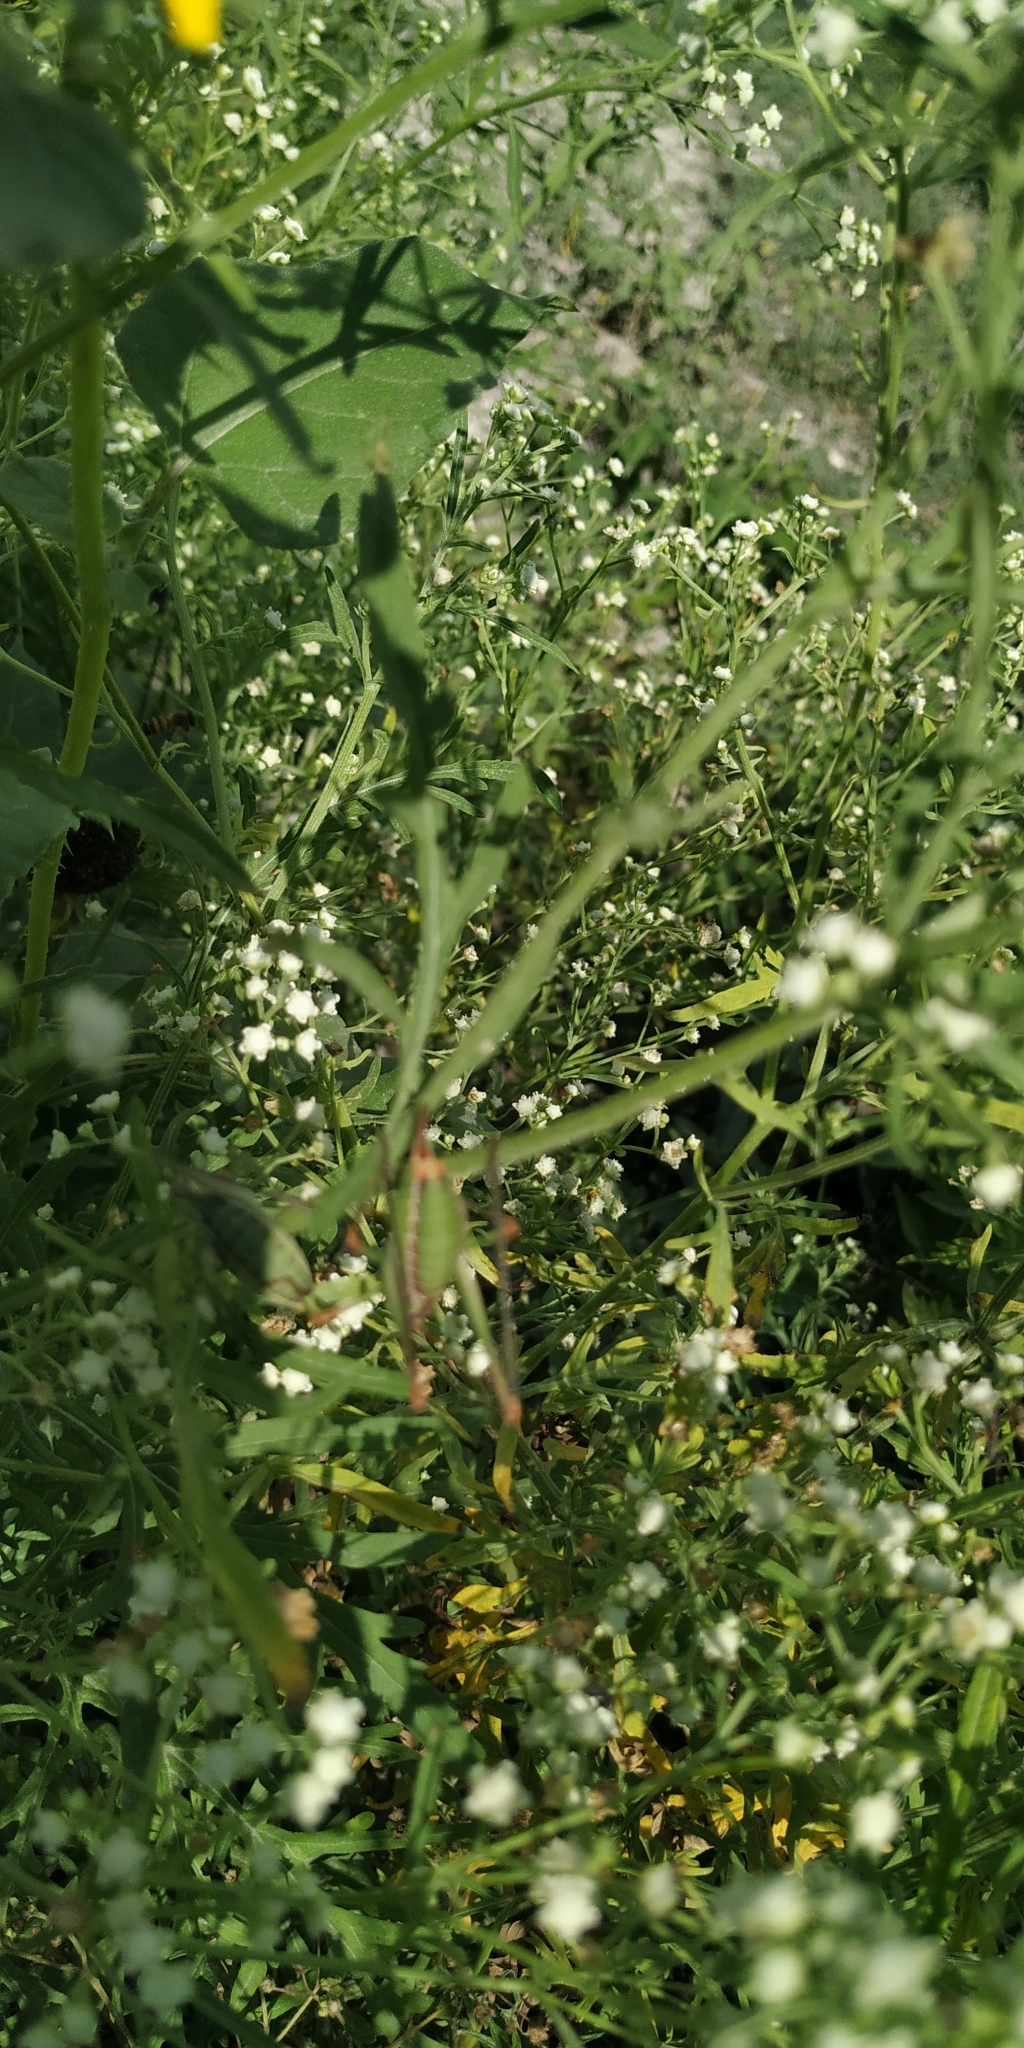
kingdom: Plantae
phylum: Tracheophyta
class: Magnoliopsida
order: Asterales
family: Asteraceae
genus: Parthenium
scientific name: Parthenium hysterophorus
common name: Santa maria feverfew
